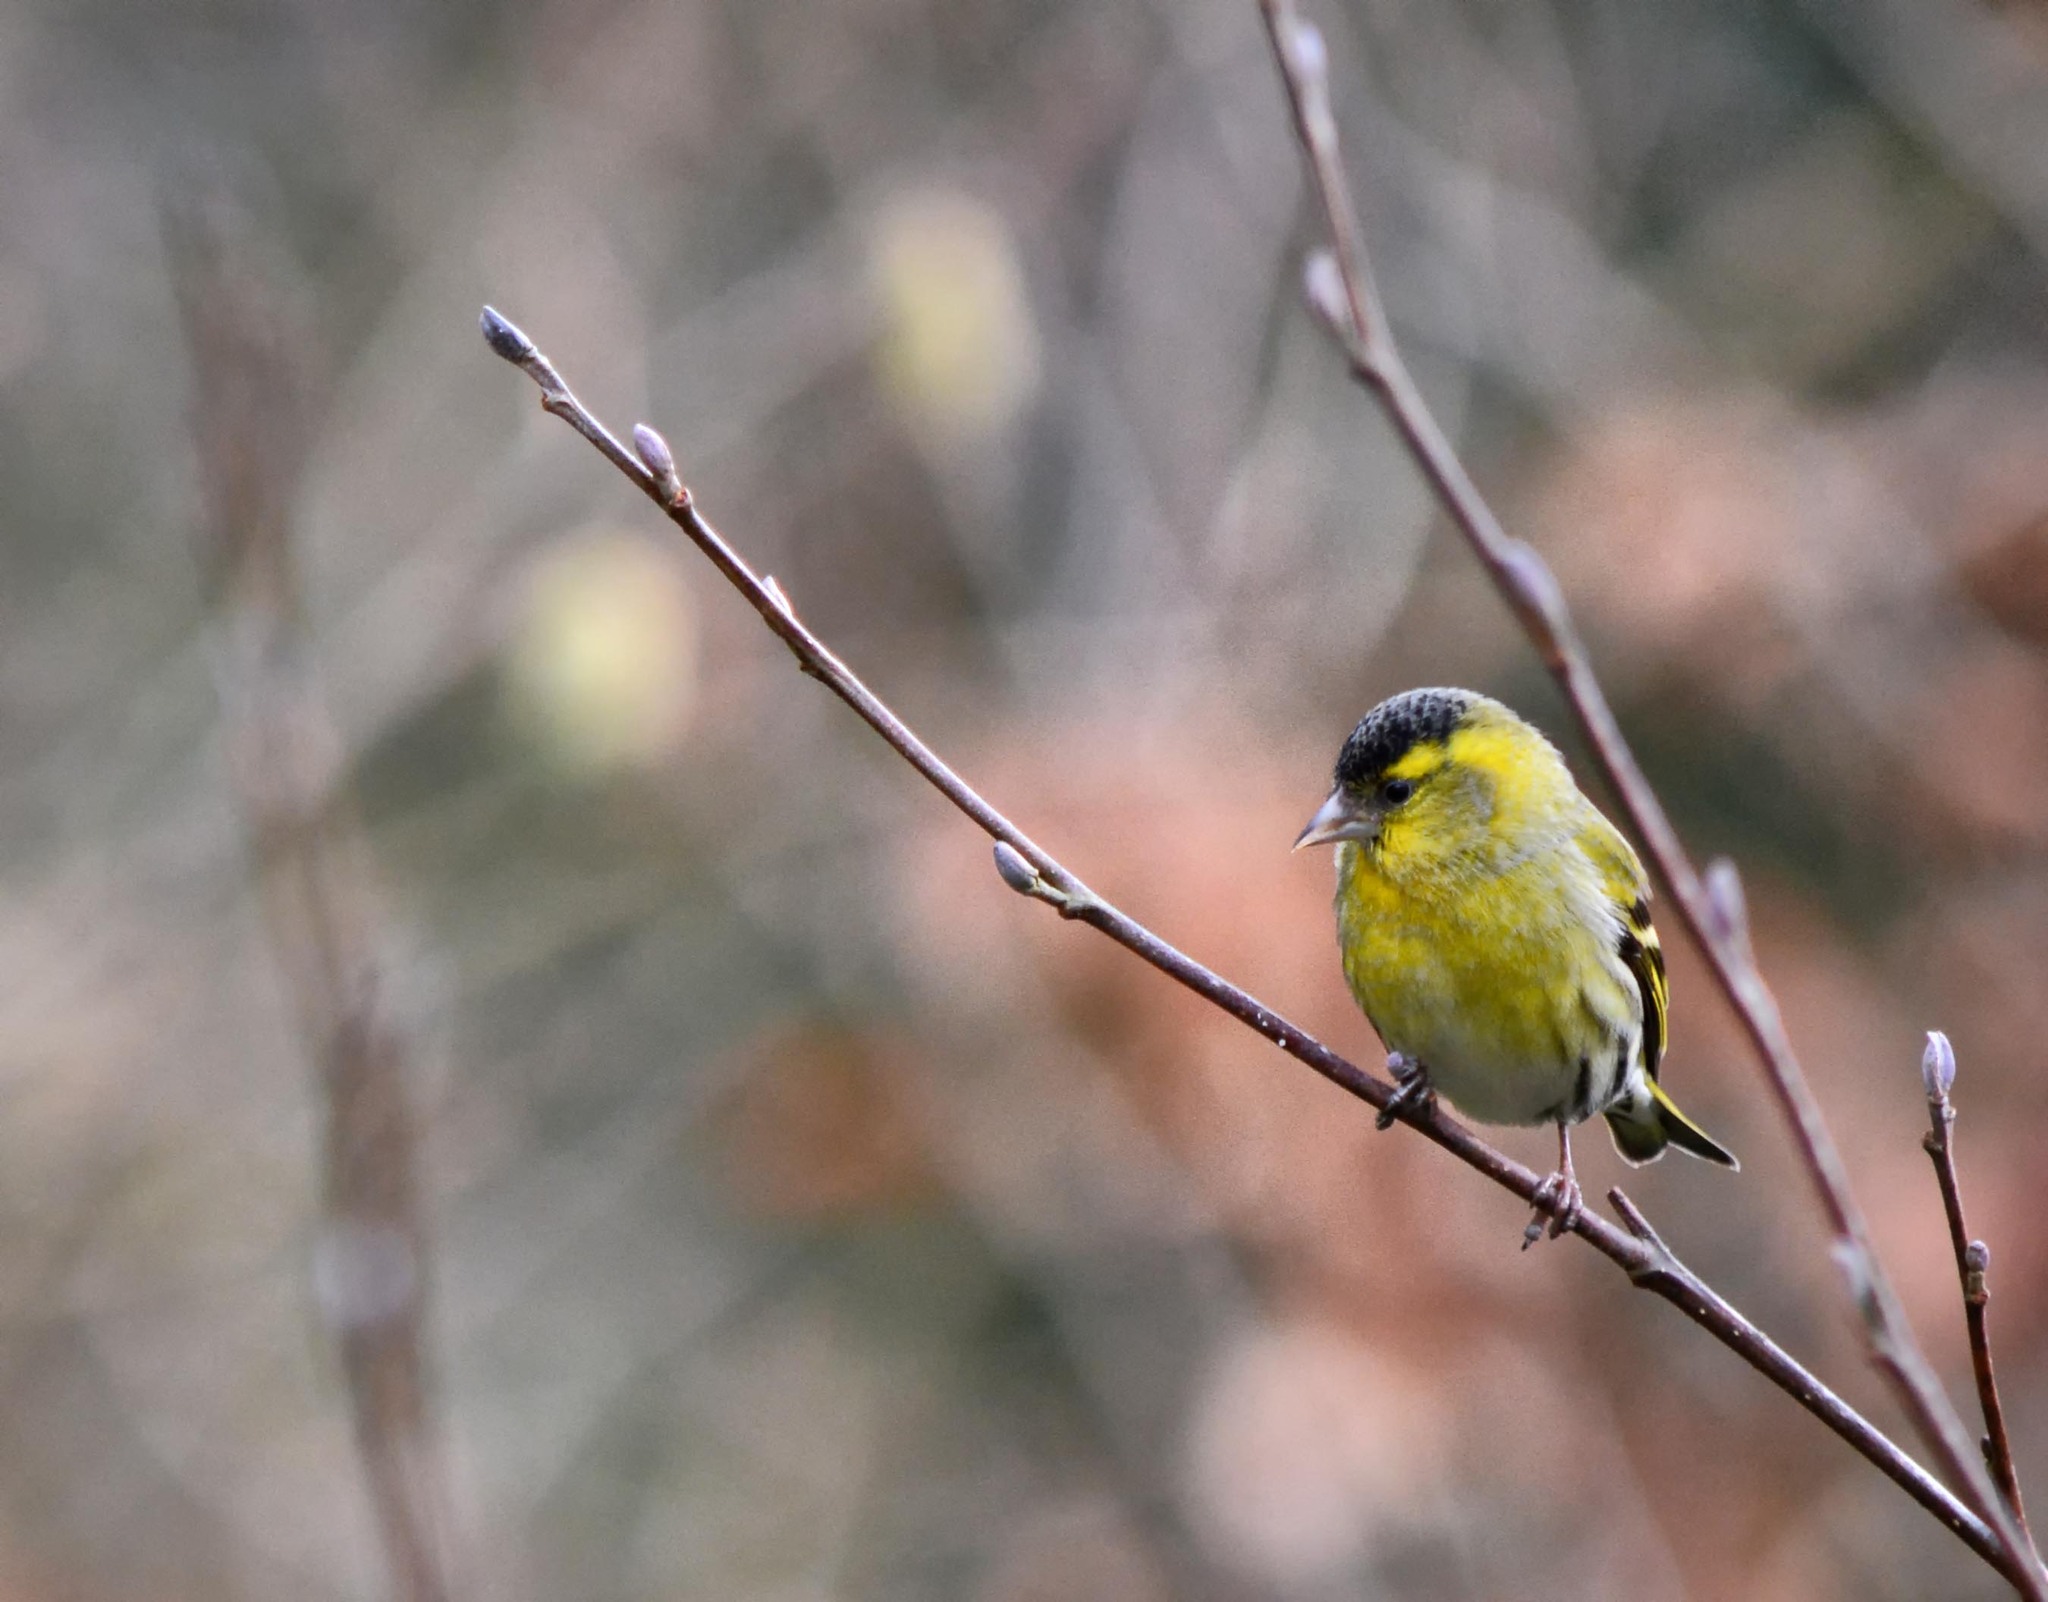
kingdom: Animalia
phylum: Chordata
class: Aves
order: Passeriformes
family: Fringillidae
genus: Spinus
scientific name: Spinus spinus
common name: Eurasian siskin
